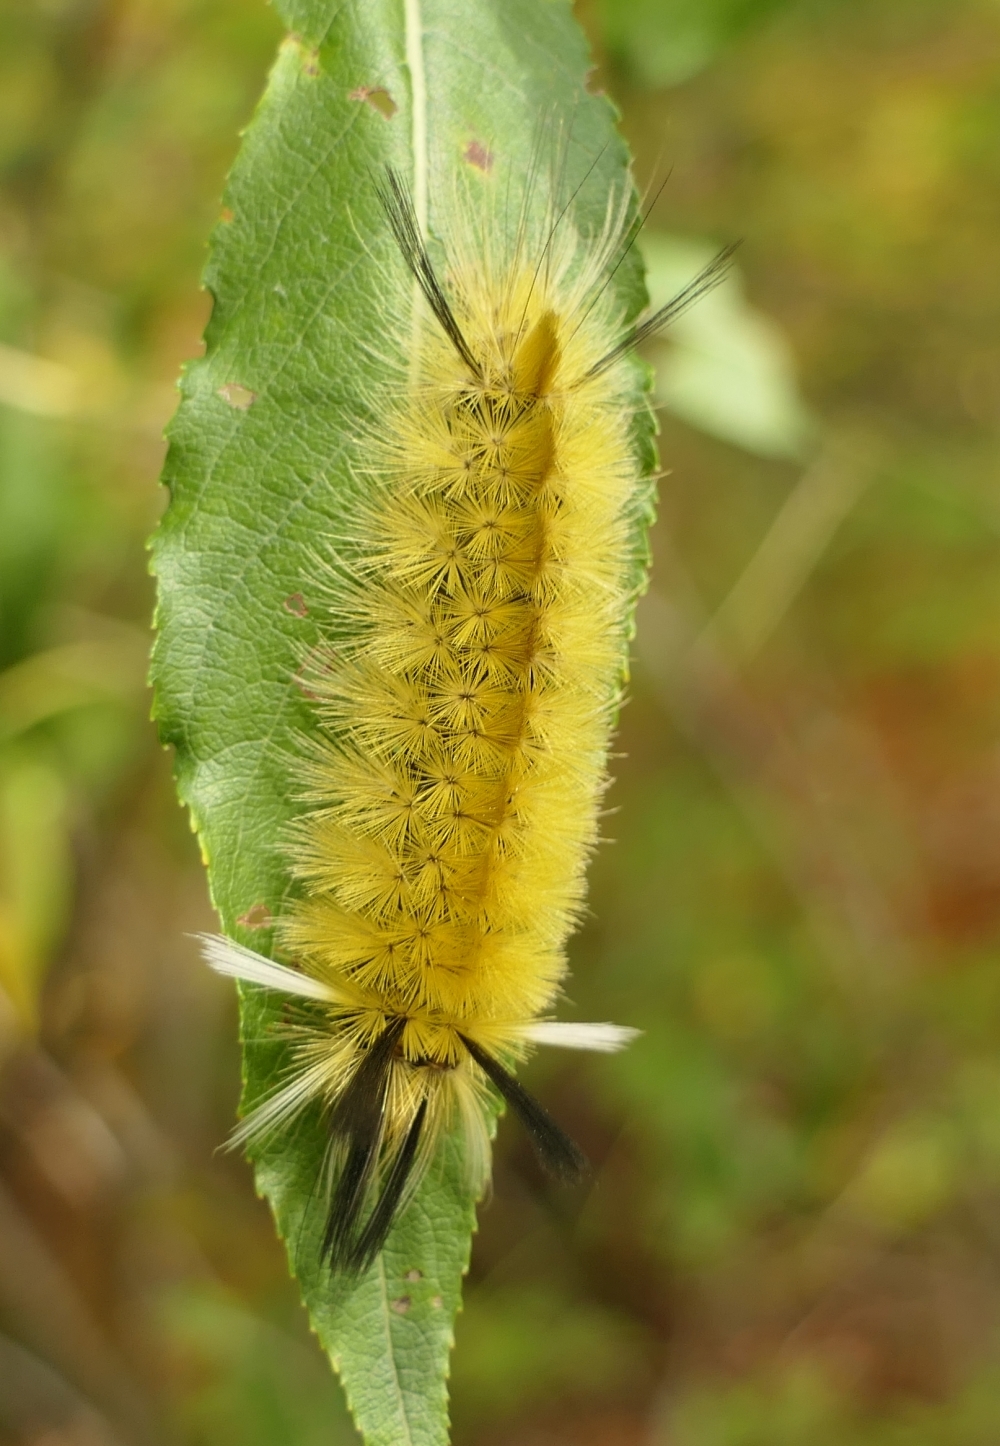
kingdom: Animalia
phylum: Arthropoda
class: Insecta
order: Lepidoptera
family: Erebidae
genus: Halysidota
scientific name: Halysidota tessellaris
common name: Banded tussock moth
